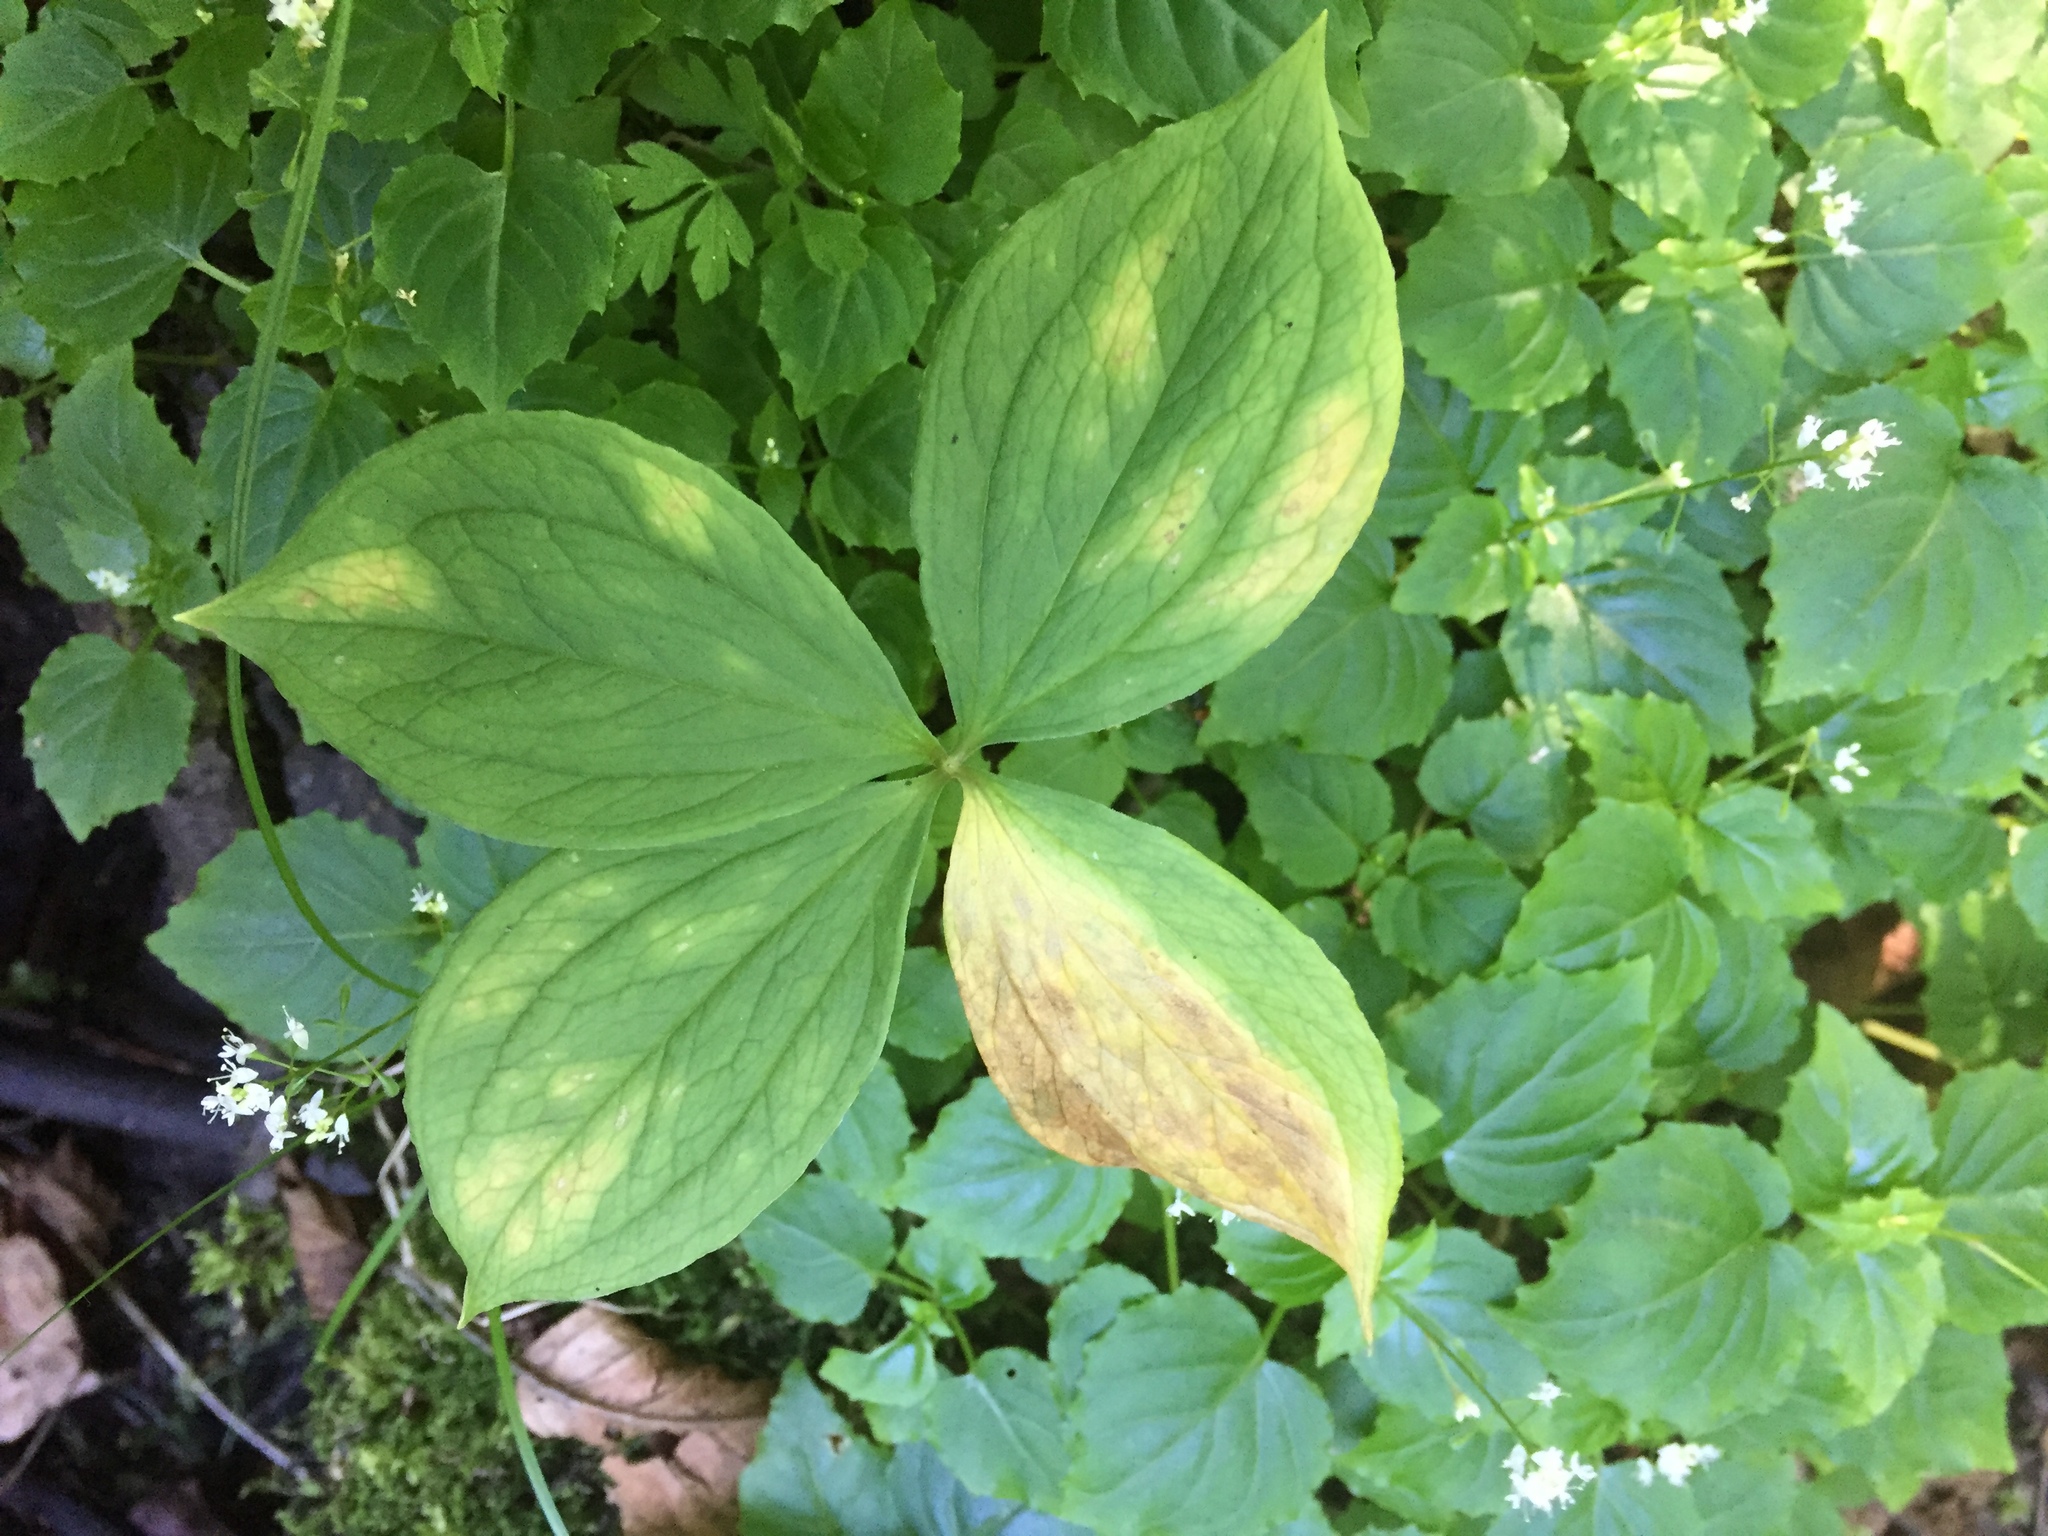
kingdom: Plantae
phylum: Tracheophyta
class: Liliopsida
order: Liliales
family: Melanthiaceae
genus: Paris
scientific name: Paris quadrifolia
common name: Herb-paris
